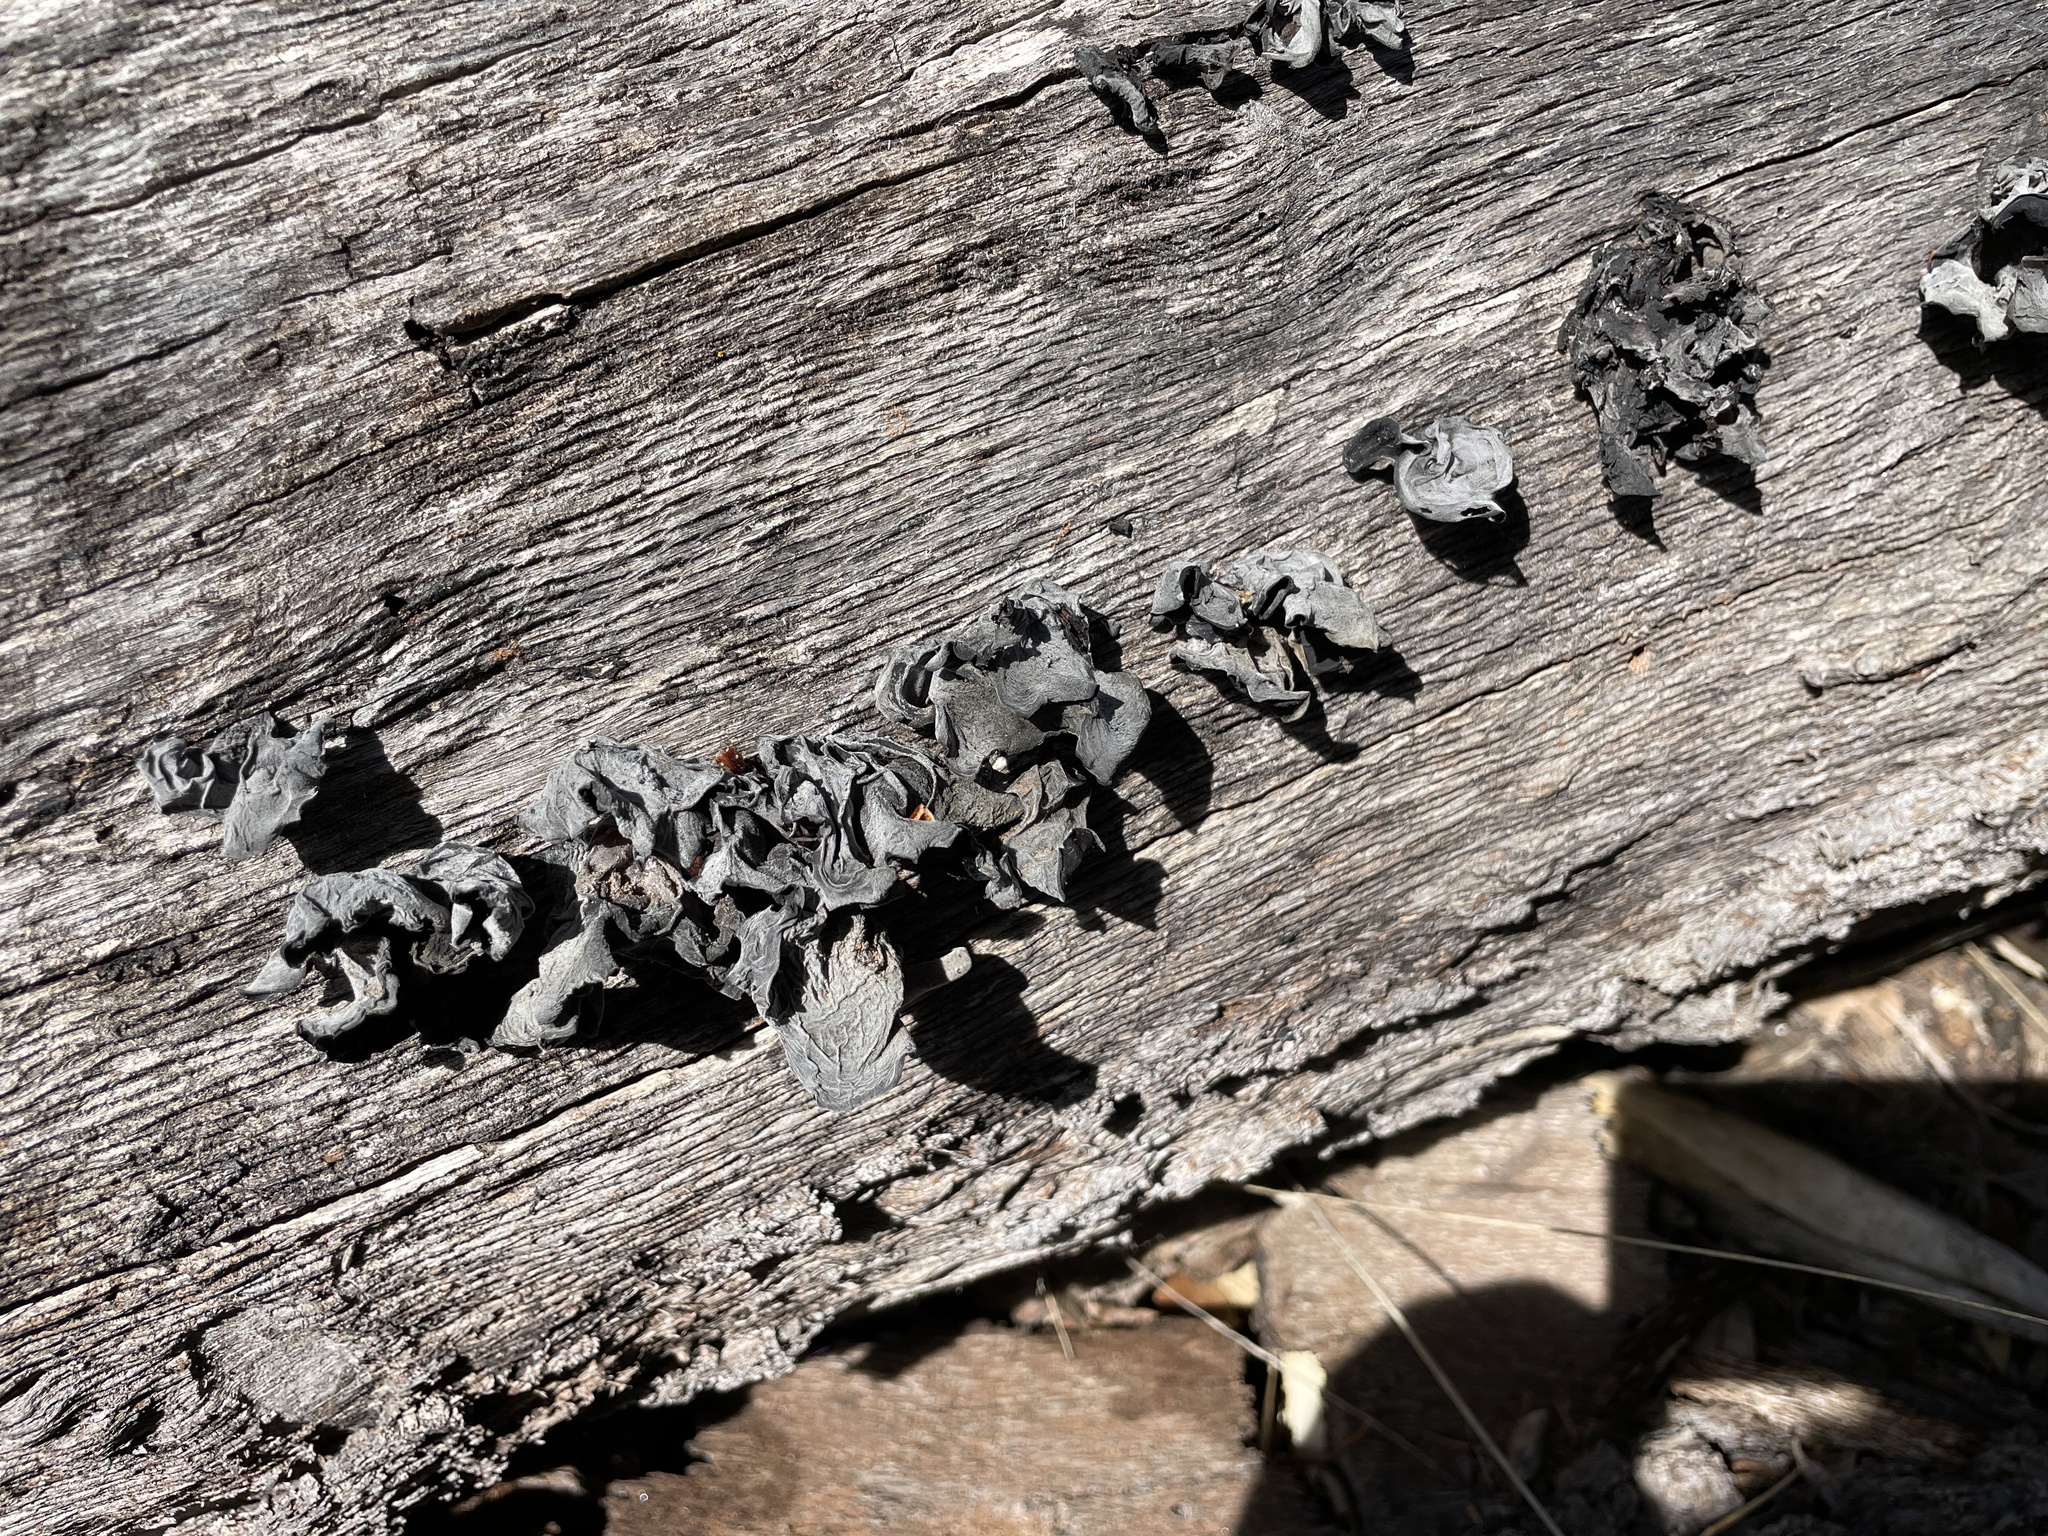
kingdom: Fungi
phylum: Basidiomycota
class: Agaricomycetes
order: Auriculariales
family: Auriculariaceae
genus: Auricularia
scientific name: Auricularia angiospermarum
